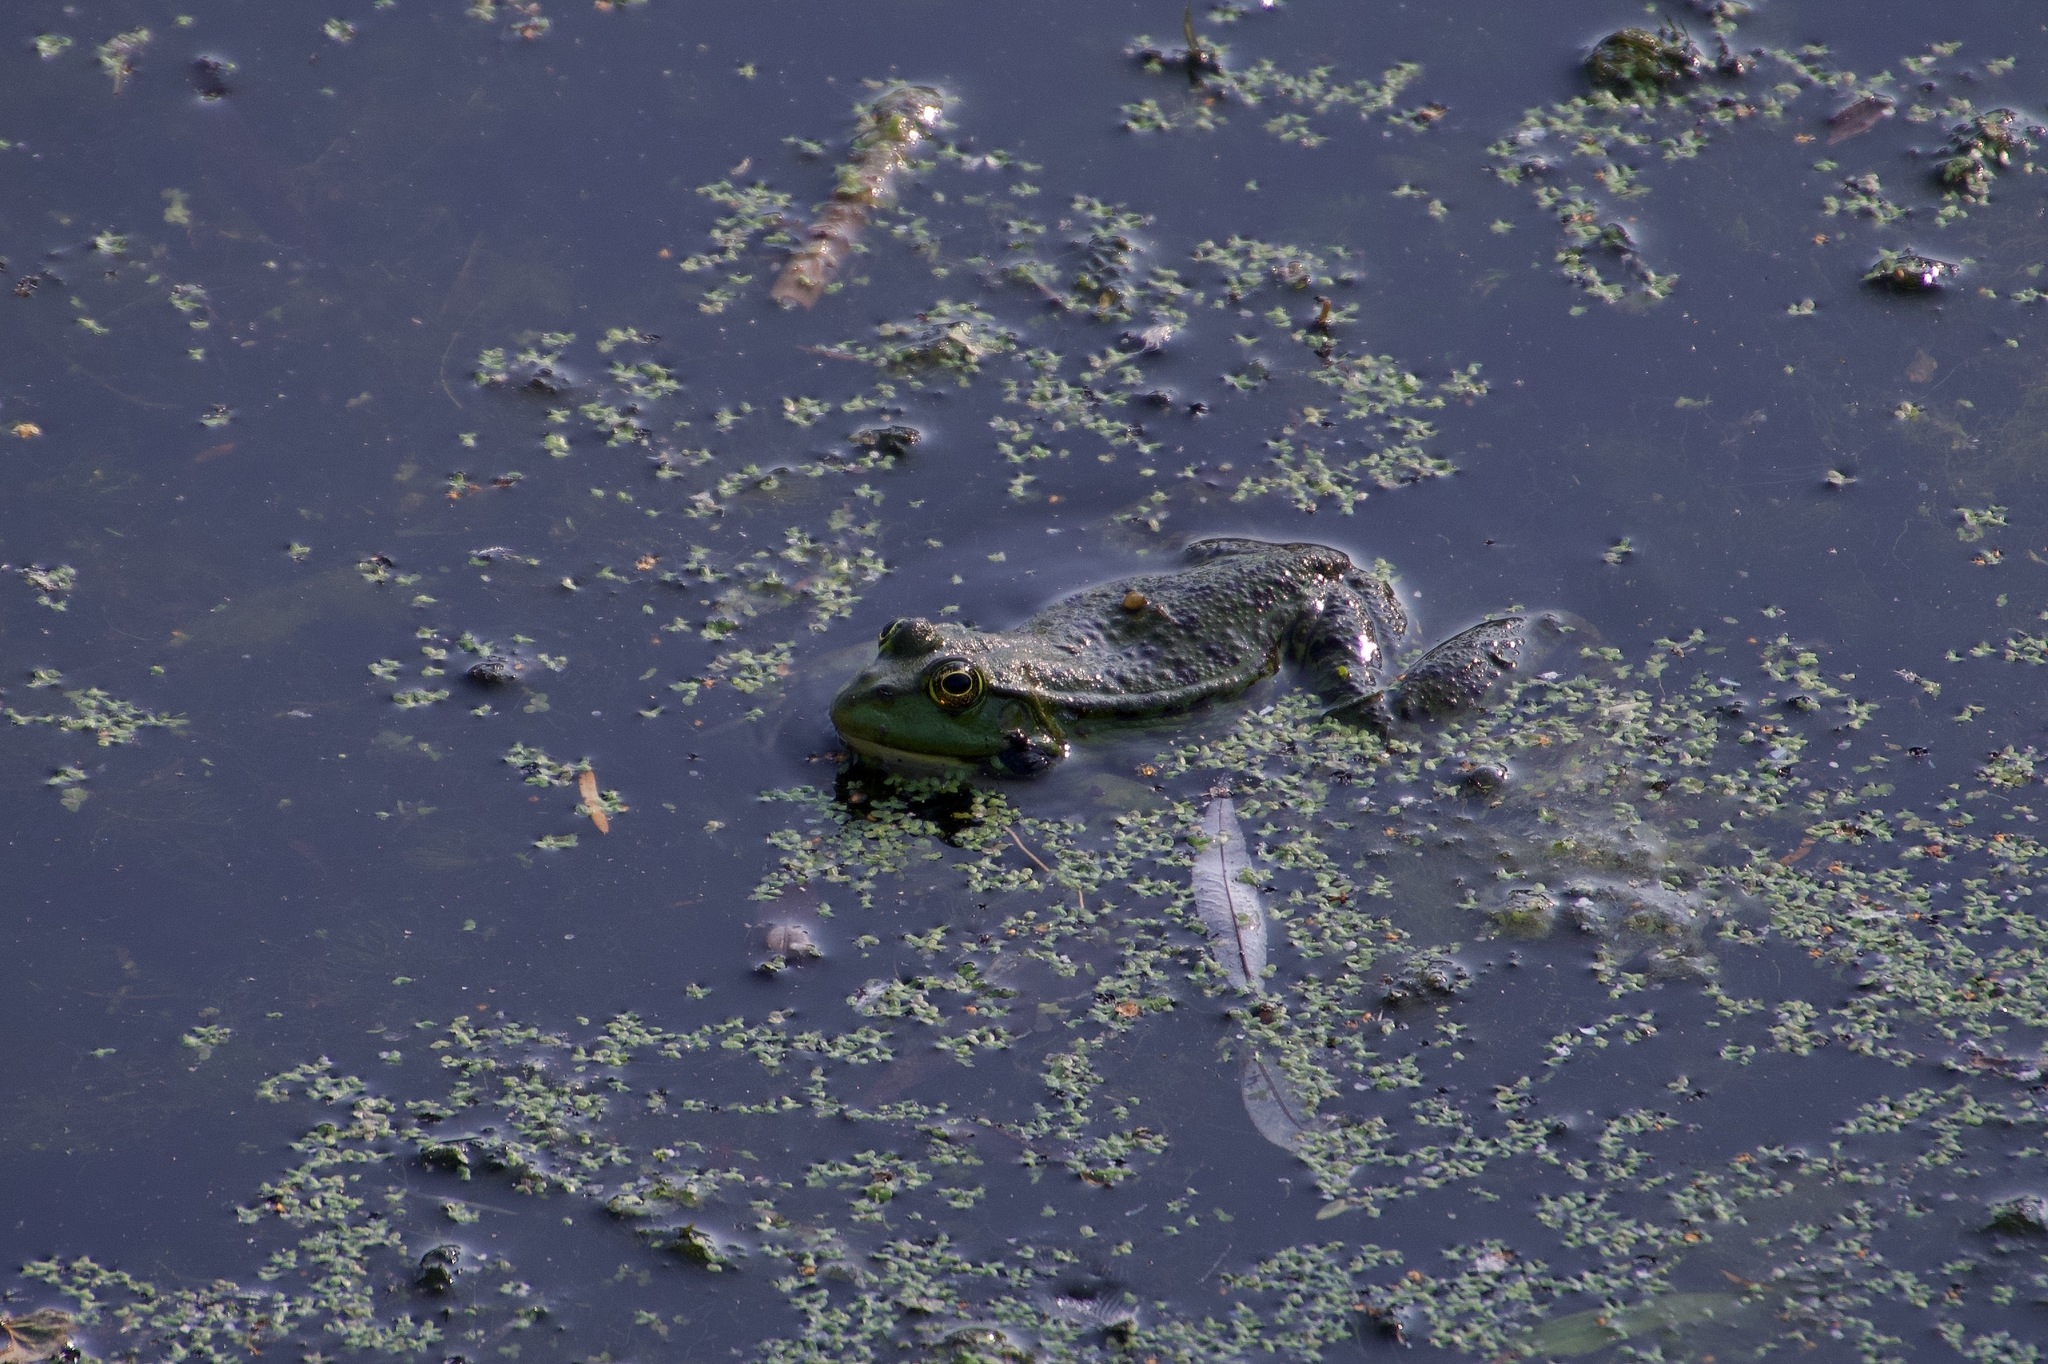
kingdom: Animalia
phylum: Chordata
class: Amphibia
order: Anura
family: Ranidae
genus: Pelophylax
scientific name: Pelophylax lessonae
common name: Pool frog
